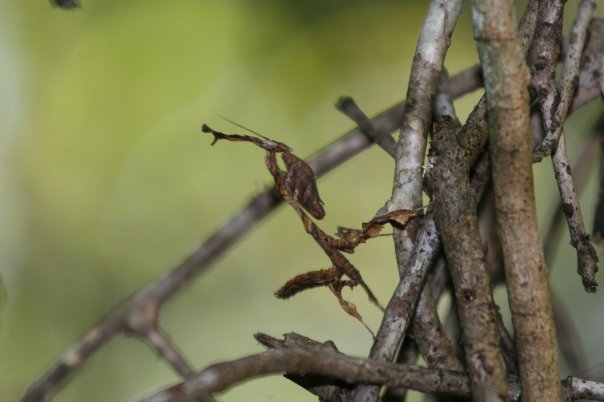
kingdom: Animalia
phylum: Arthropoda
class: Insecta
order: Mantodea
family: Hymenopodidae
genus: Phyllocrania
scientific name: Phyllocrania paradoxa
